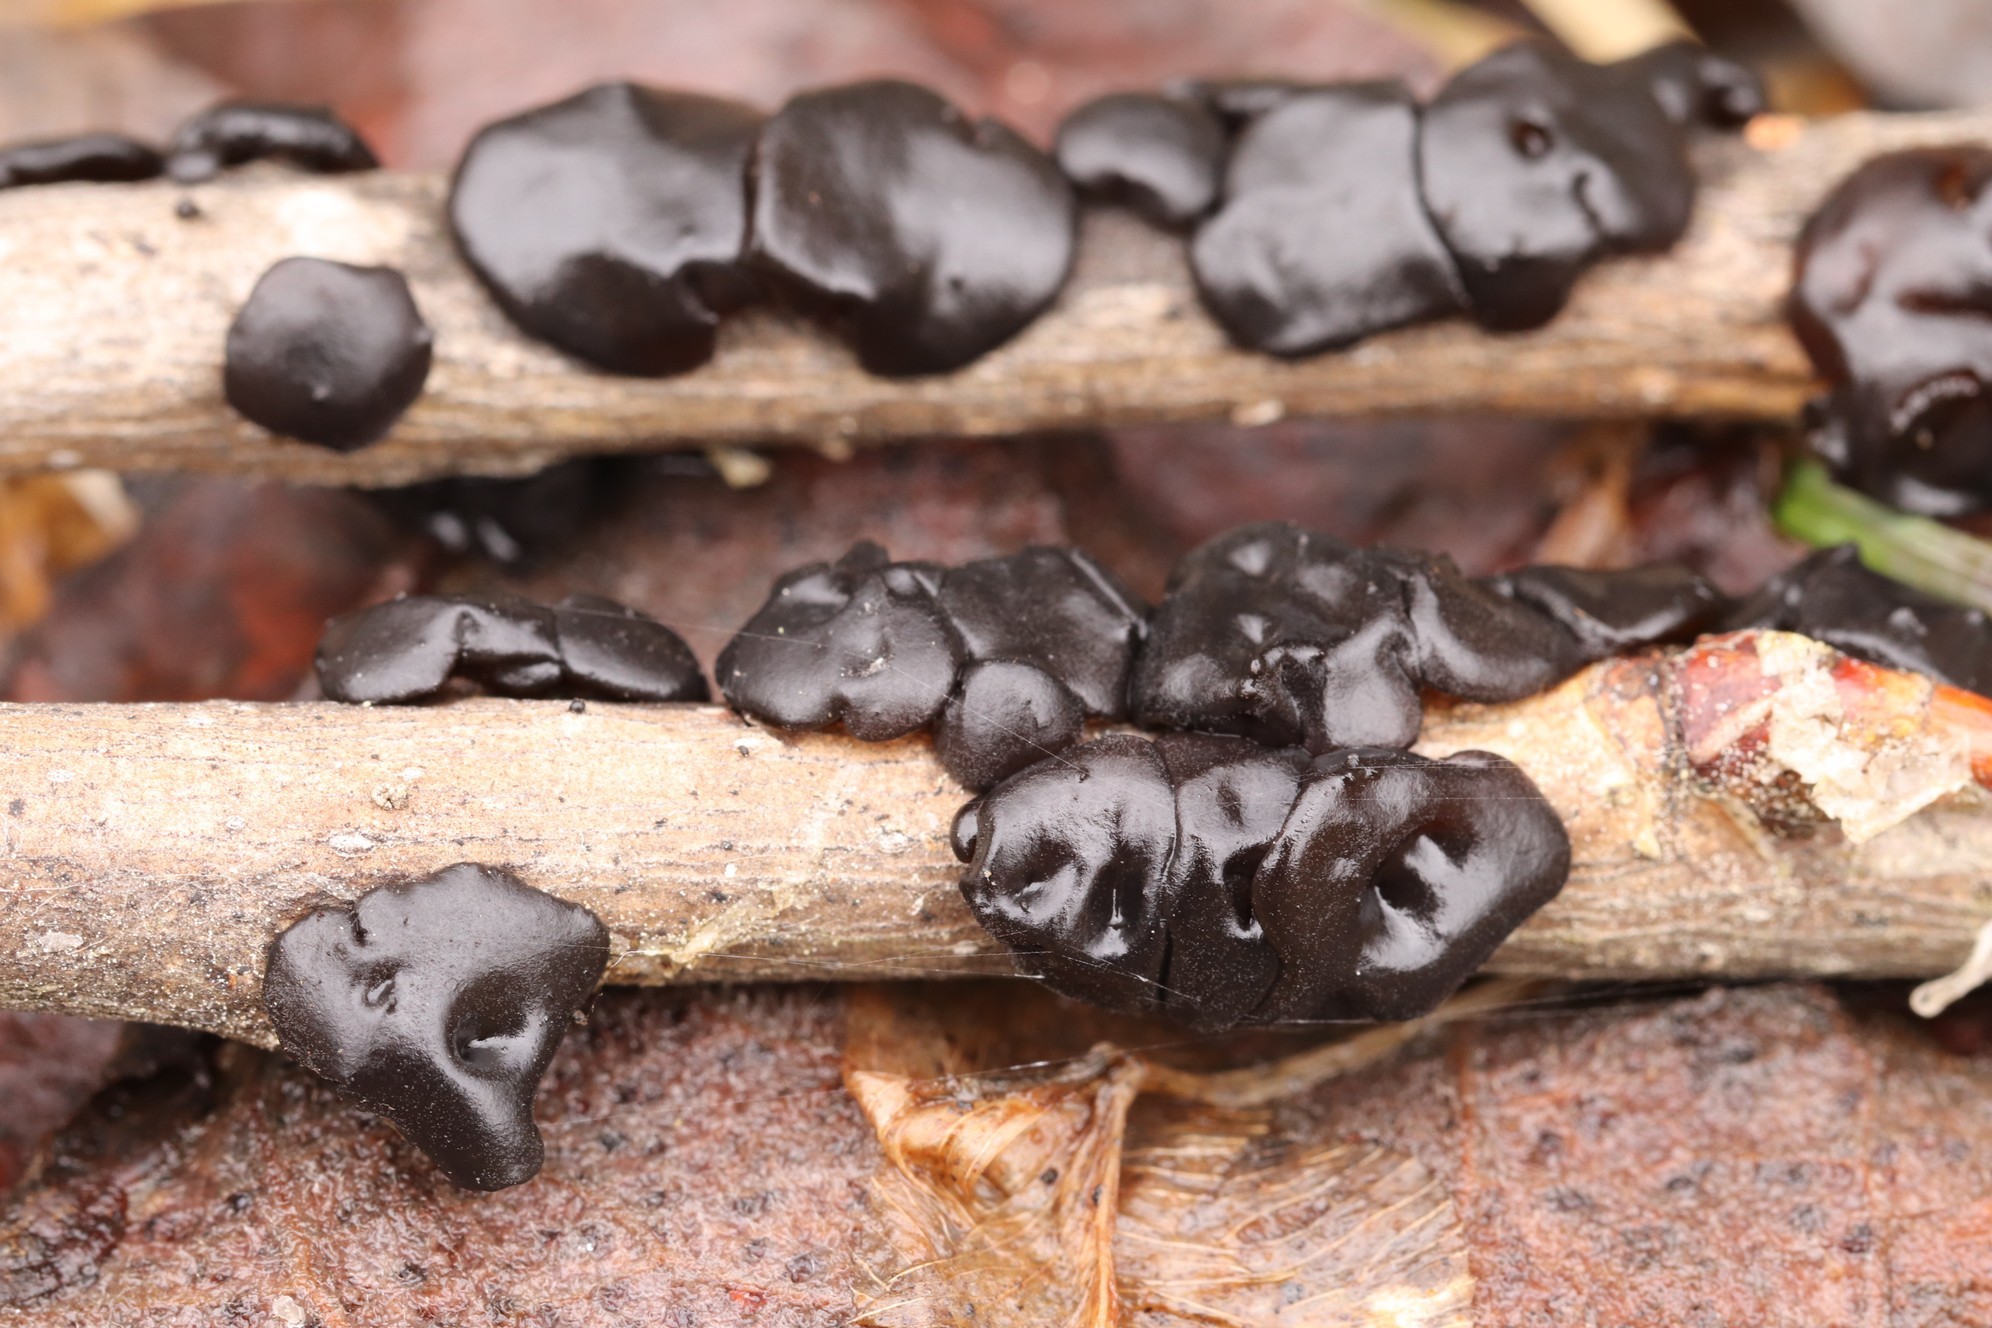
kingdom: Fungi
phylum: Basidiomycota
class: Agaricomycetes
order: Auriculariales
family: Auriculariaceae
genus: Exidia
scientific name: Exidia glandulosa
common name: Witches' butter
